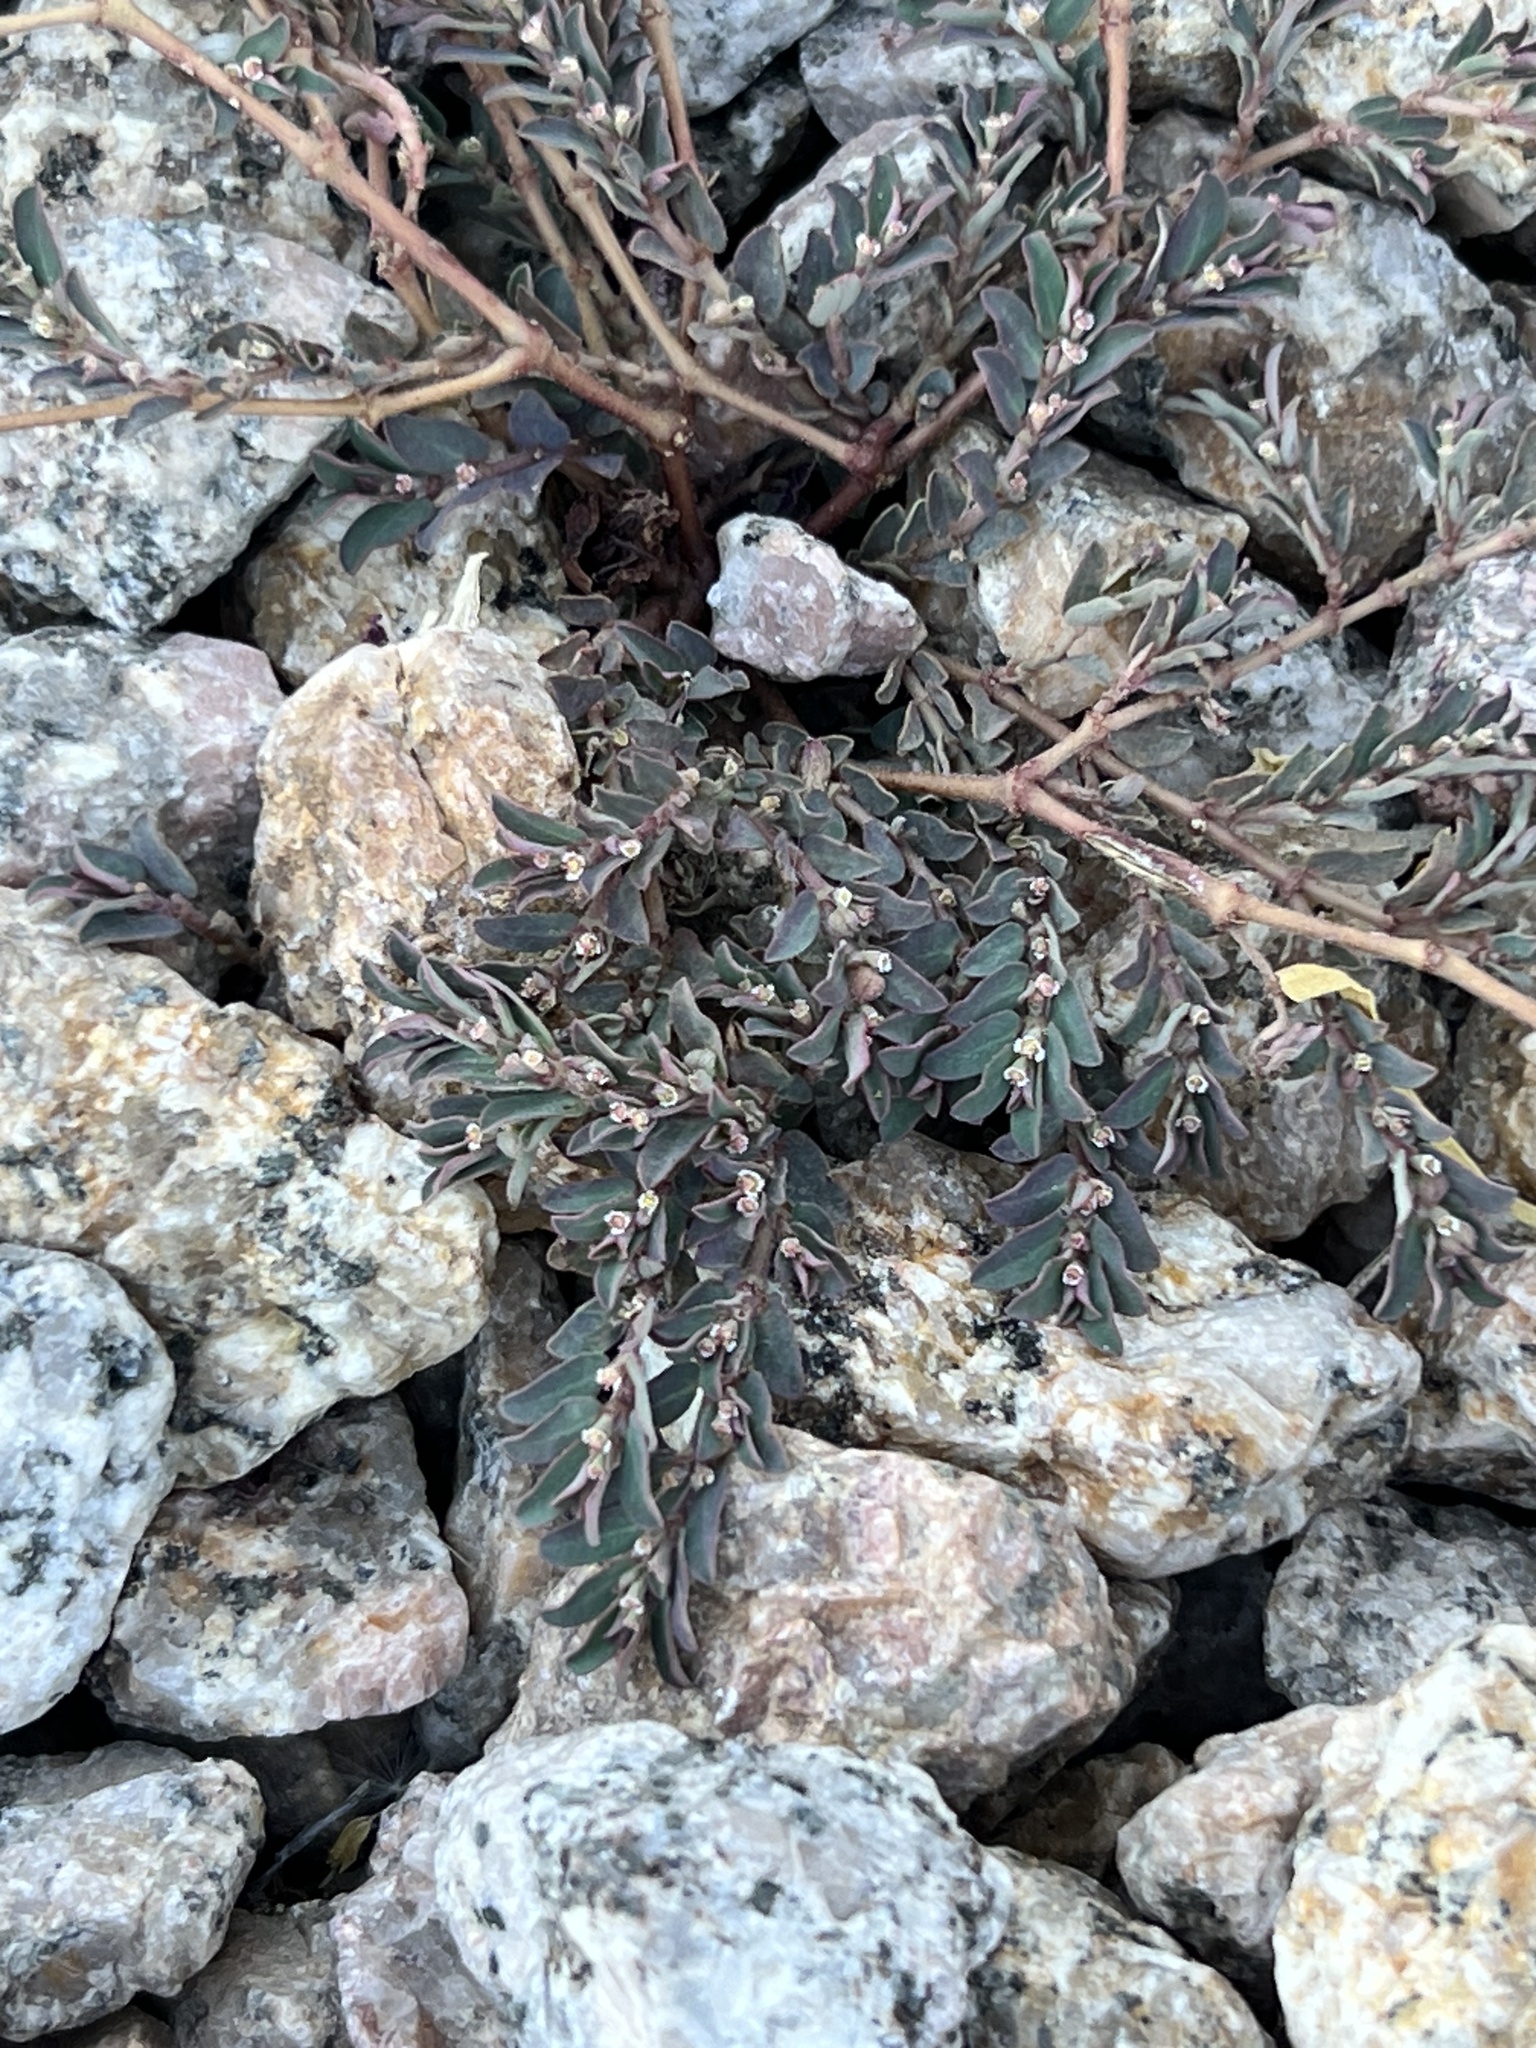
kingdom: Plantae
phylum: Tracheophyta
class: Magnoliopsida
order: Malpighiales
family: Euphorbiaceae
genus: Euphorbia
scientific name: Euphorbia maculata
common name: Spotted spurge
